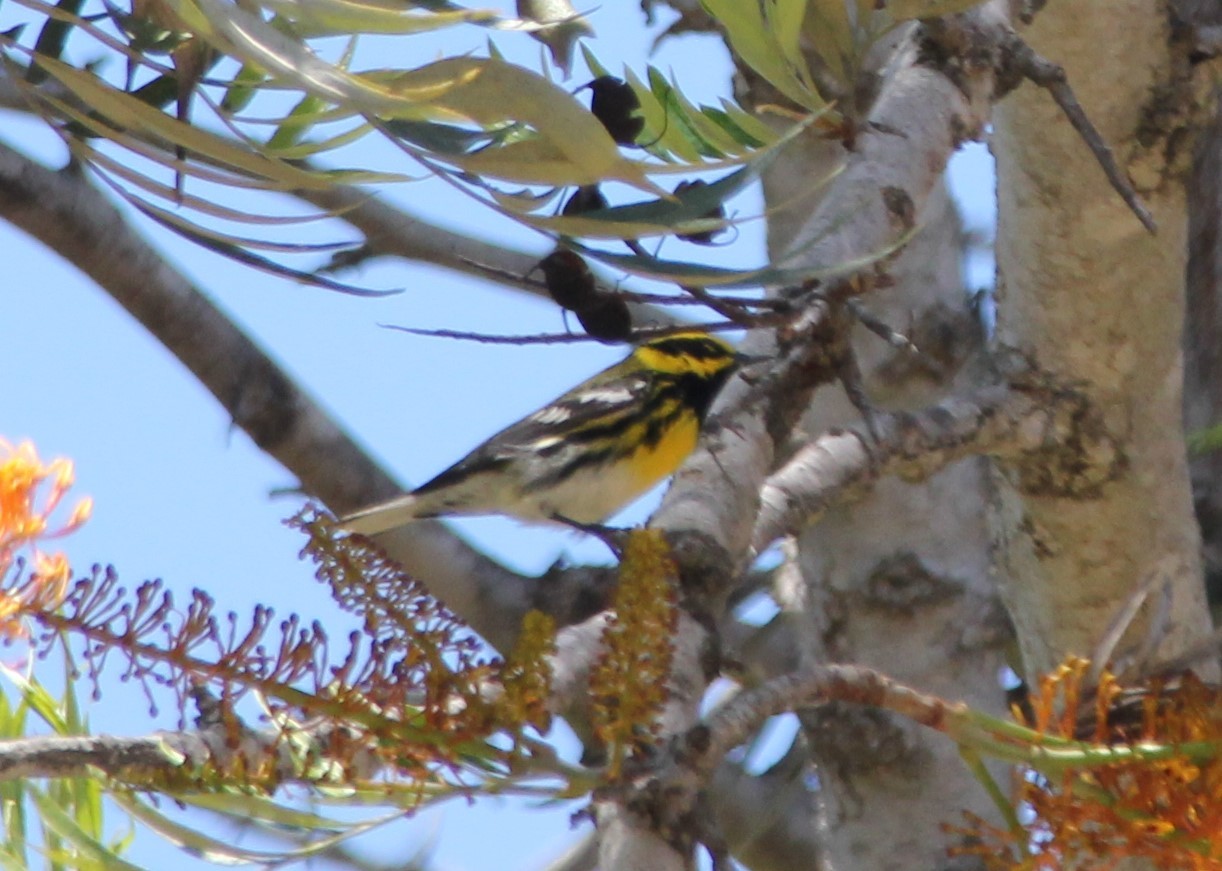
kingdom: Animalia
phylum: Chordata
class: Aves
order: Passeriformes
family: Parulidae
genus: Setophaga
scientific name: Setophaga townsendi
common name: Townsend's warbler
